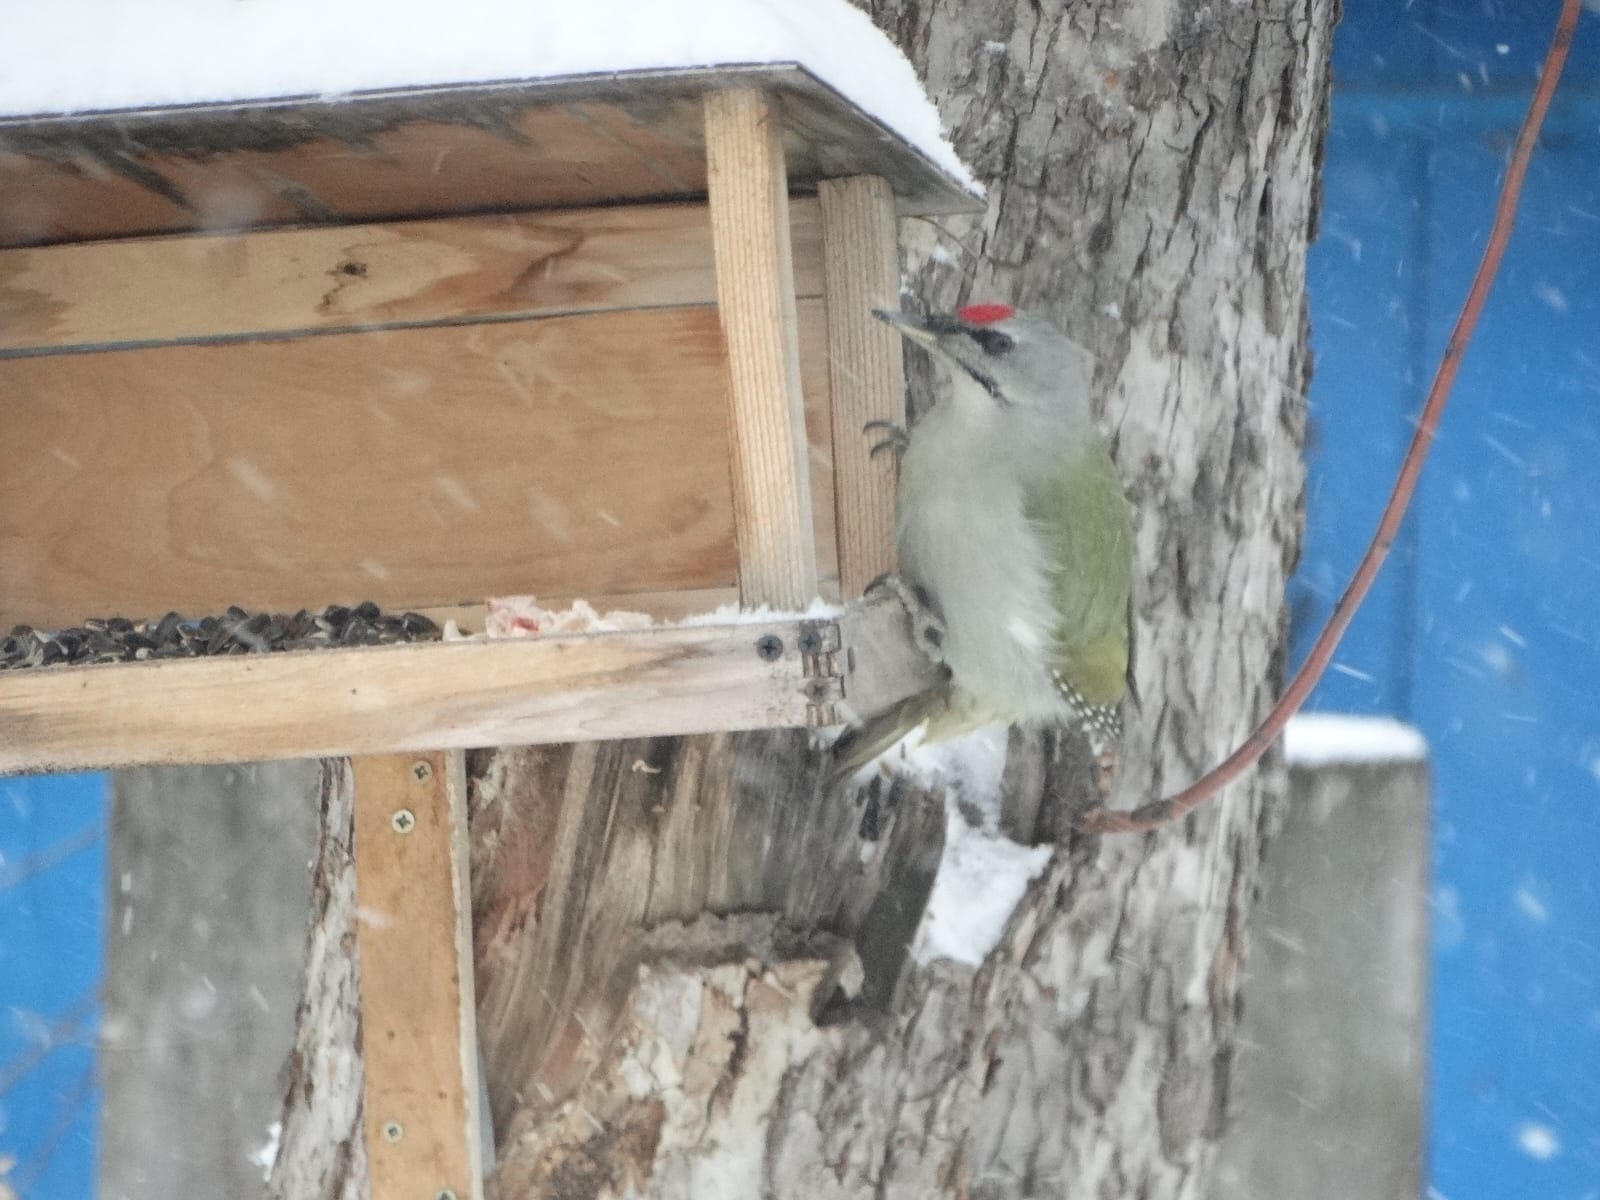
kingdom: Animalia
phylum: Chordata
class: Aves
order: Piciformes
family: Picidae
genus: Picus
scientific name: Picus canus
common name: Grey-headed woodpecker
